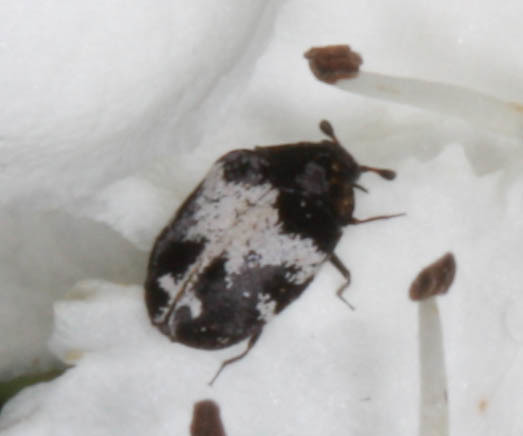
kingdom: Animalia
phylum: Arthropoda
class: Insecta
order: Coleoptera
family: Dermestidae
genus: Anthrenus
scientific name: Anthrenus sophonisba
